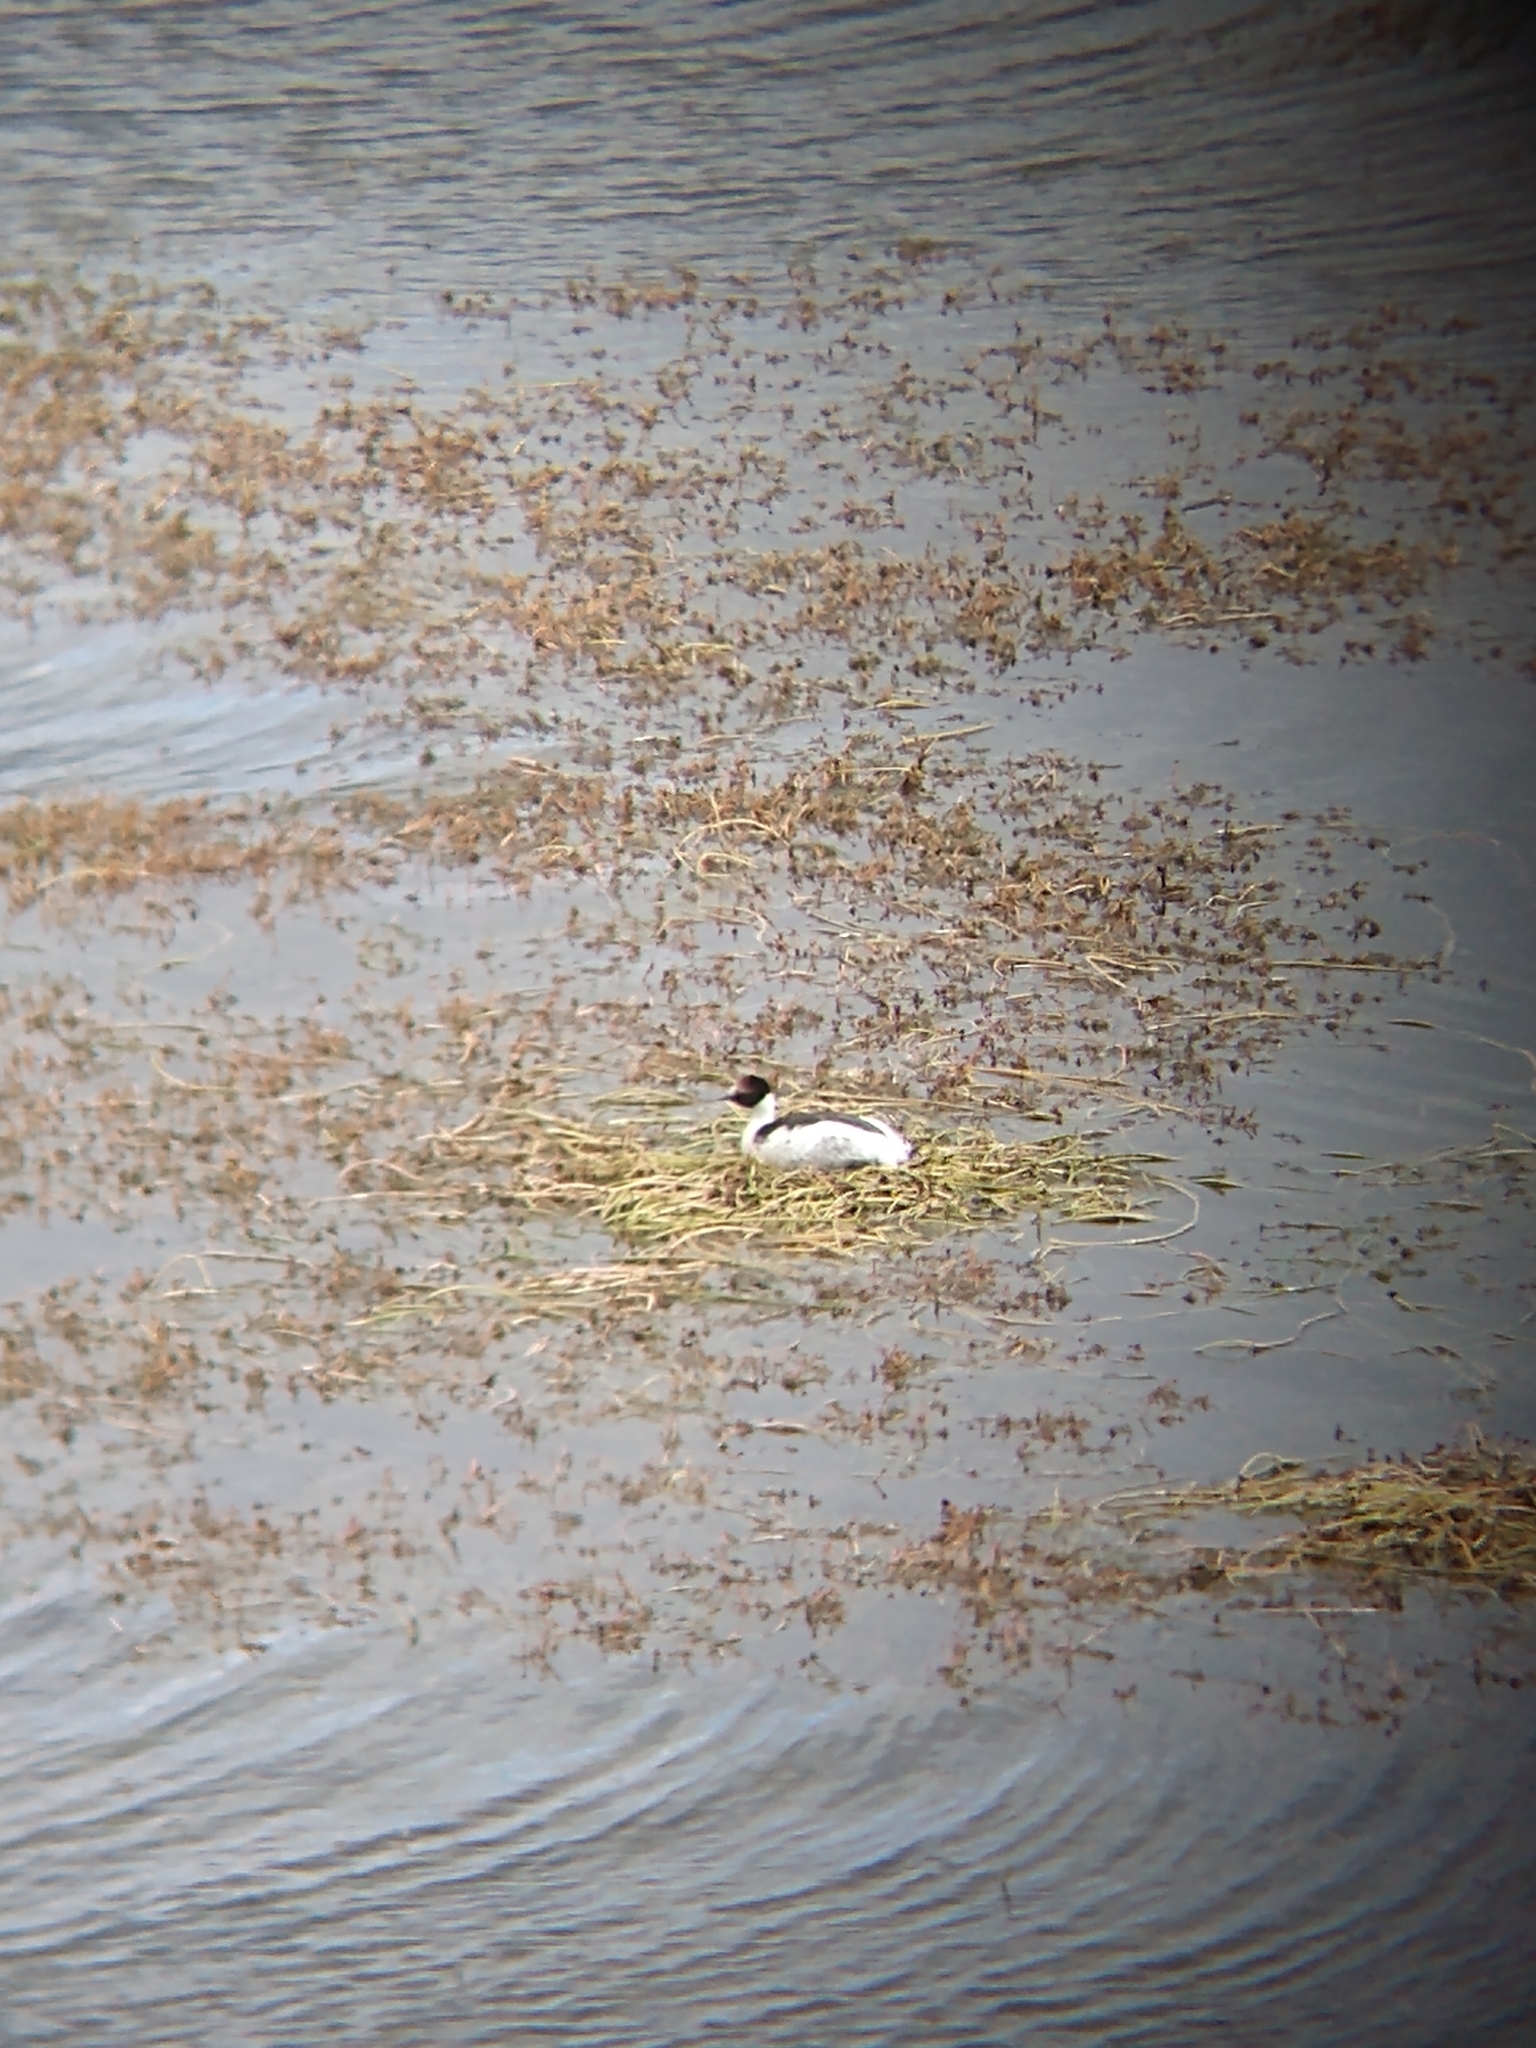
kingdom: Animalia
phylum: Chordata
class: Aves
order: Podicipediformes
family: Podicipedidae
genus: Podiceps
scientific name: Podiceps gallardoi
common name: Hooded grebe
